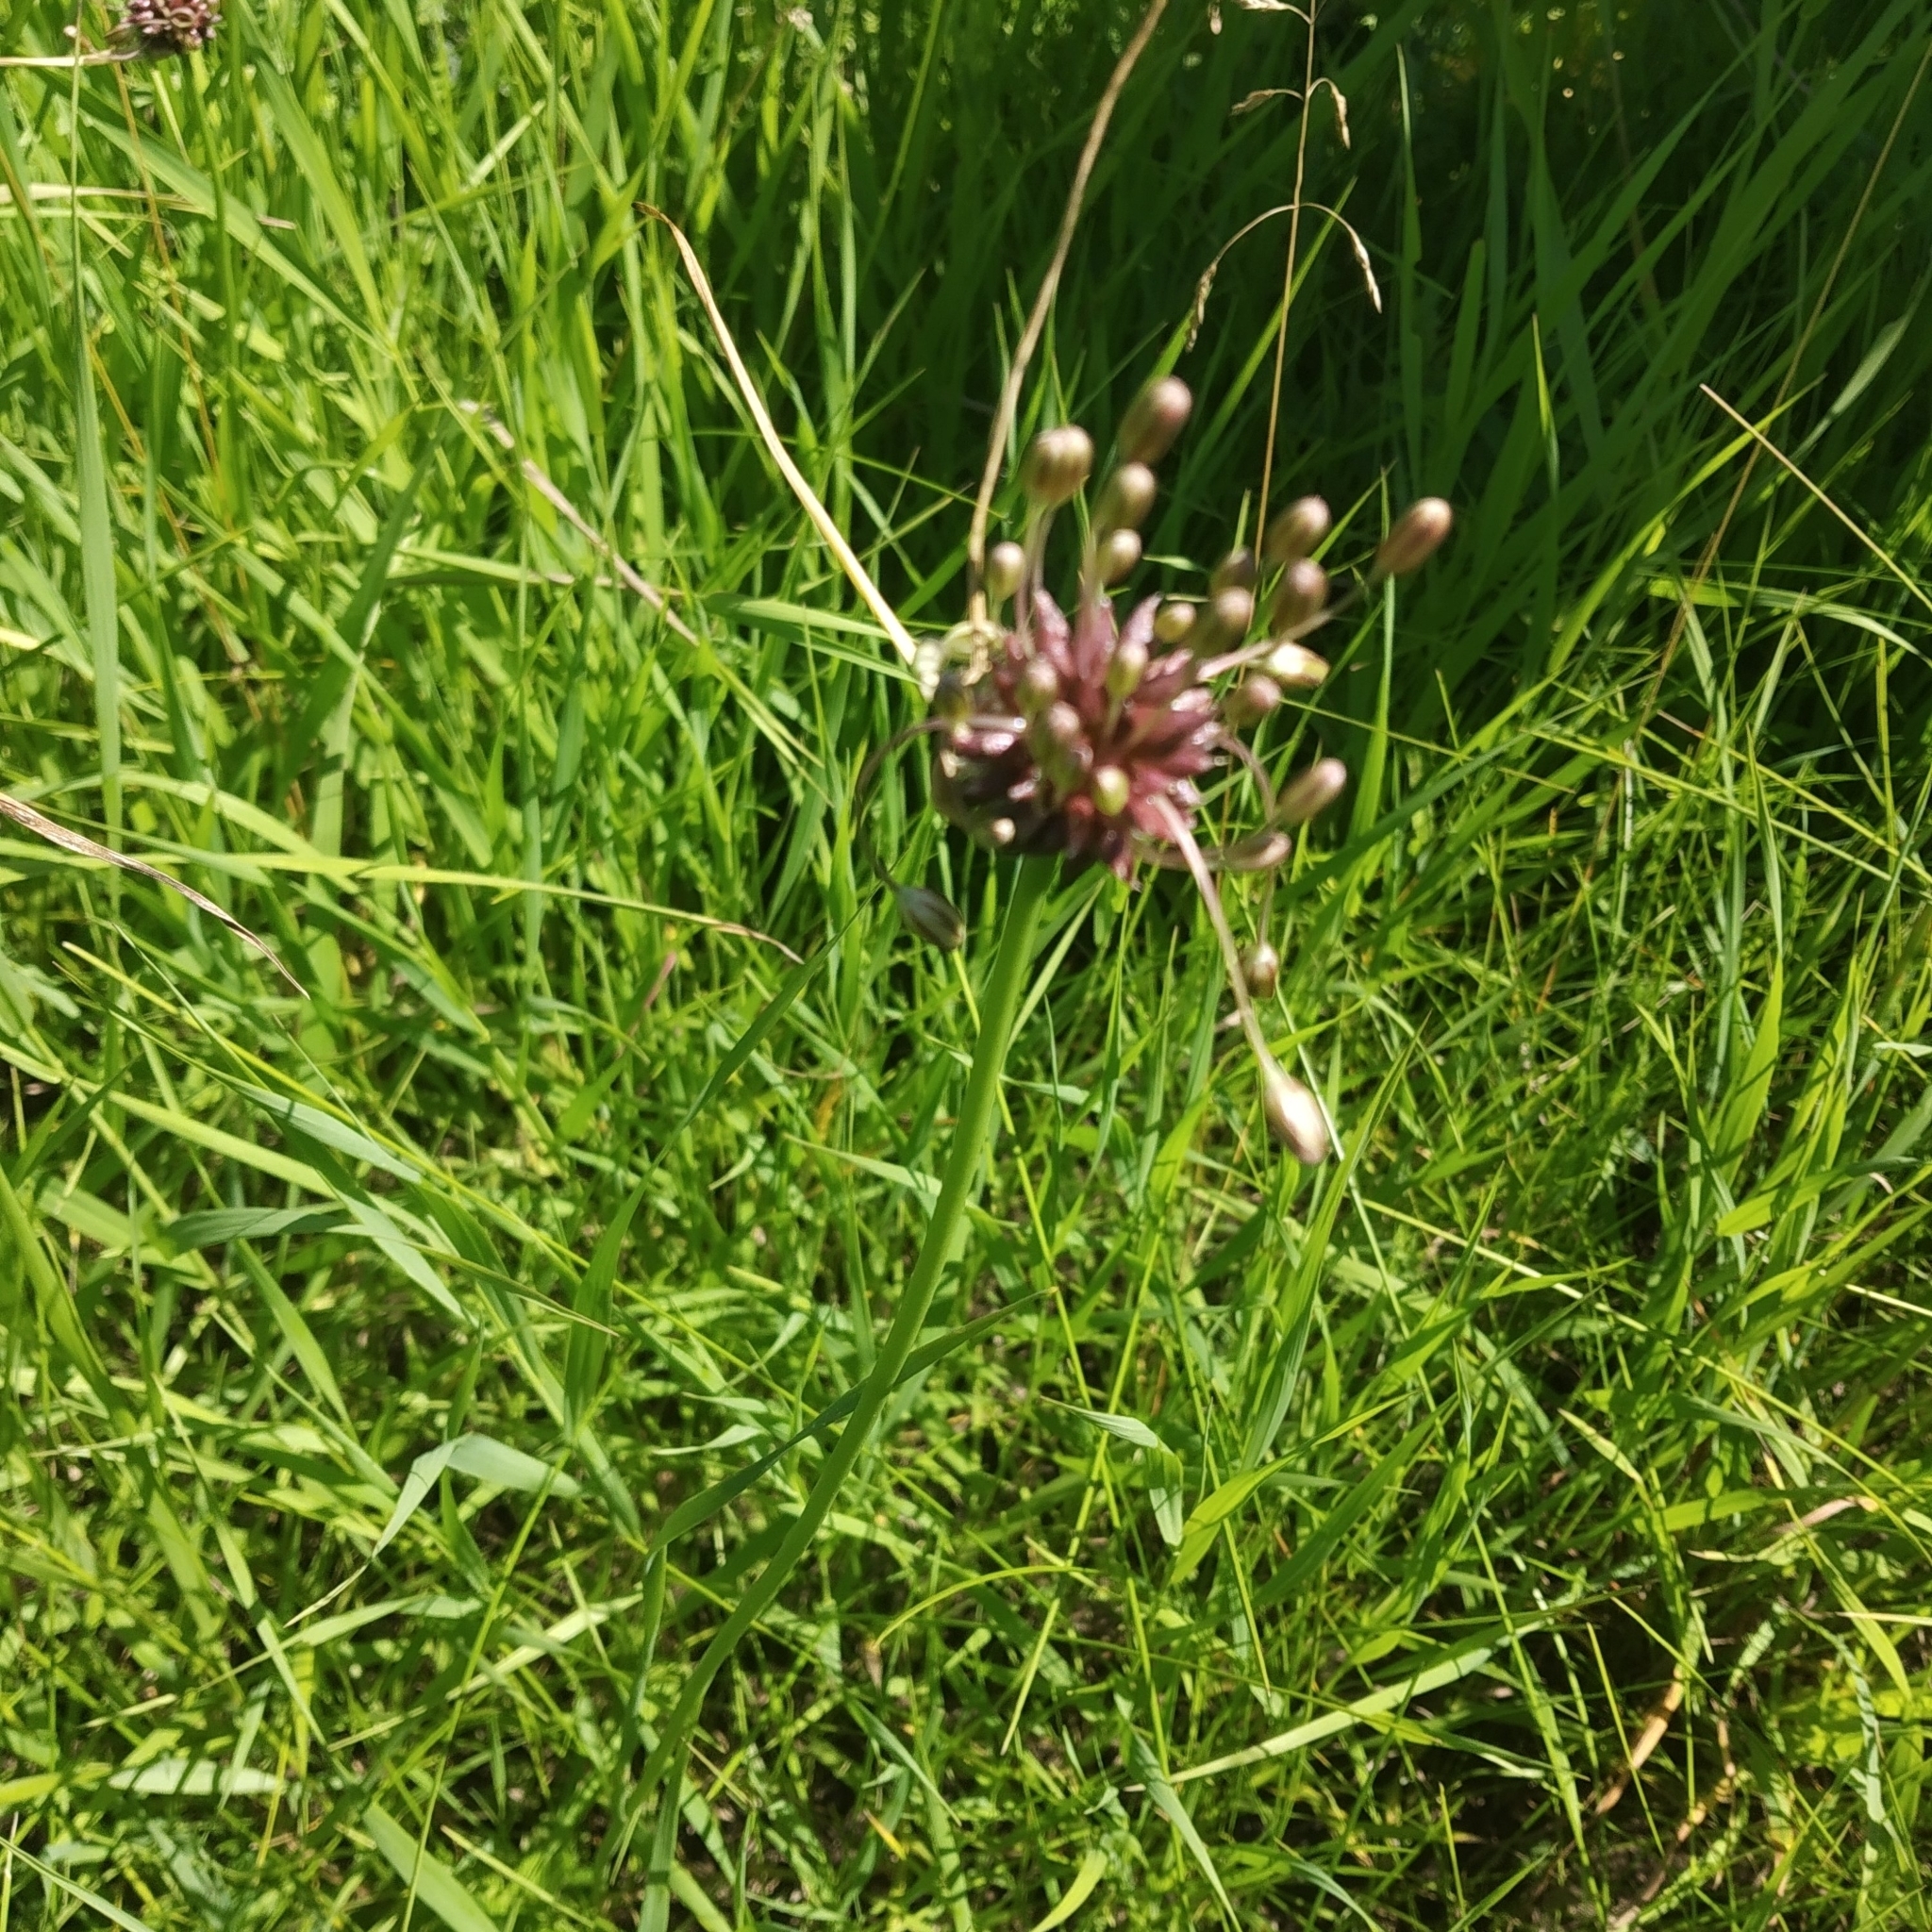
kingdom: Plantae
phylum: Tracheophyta
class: Liliopsida
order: Asparagales
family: Amaryllidaceae
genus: Allium
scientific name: Allium oleraceum
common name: Field garlic
